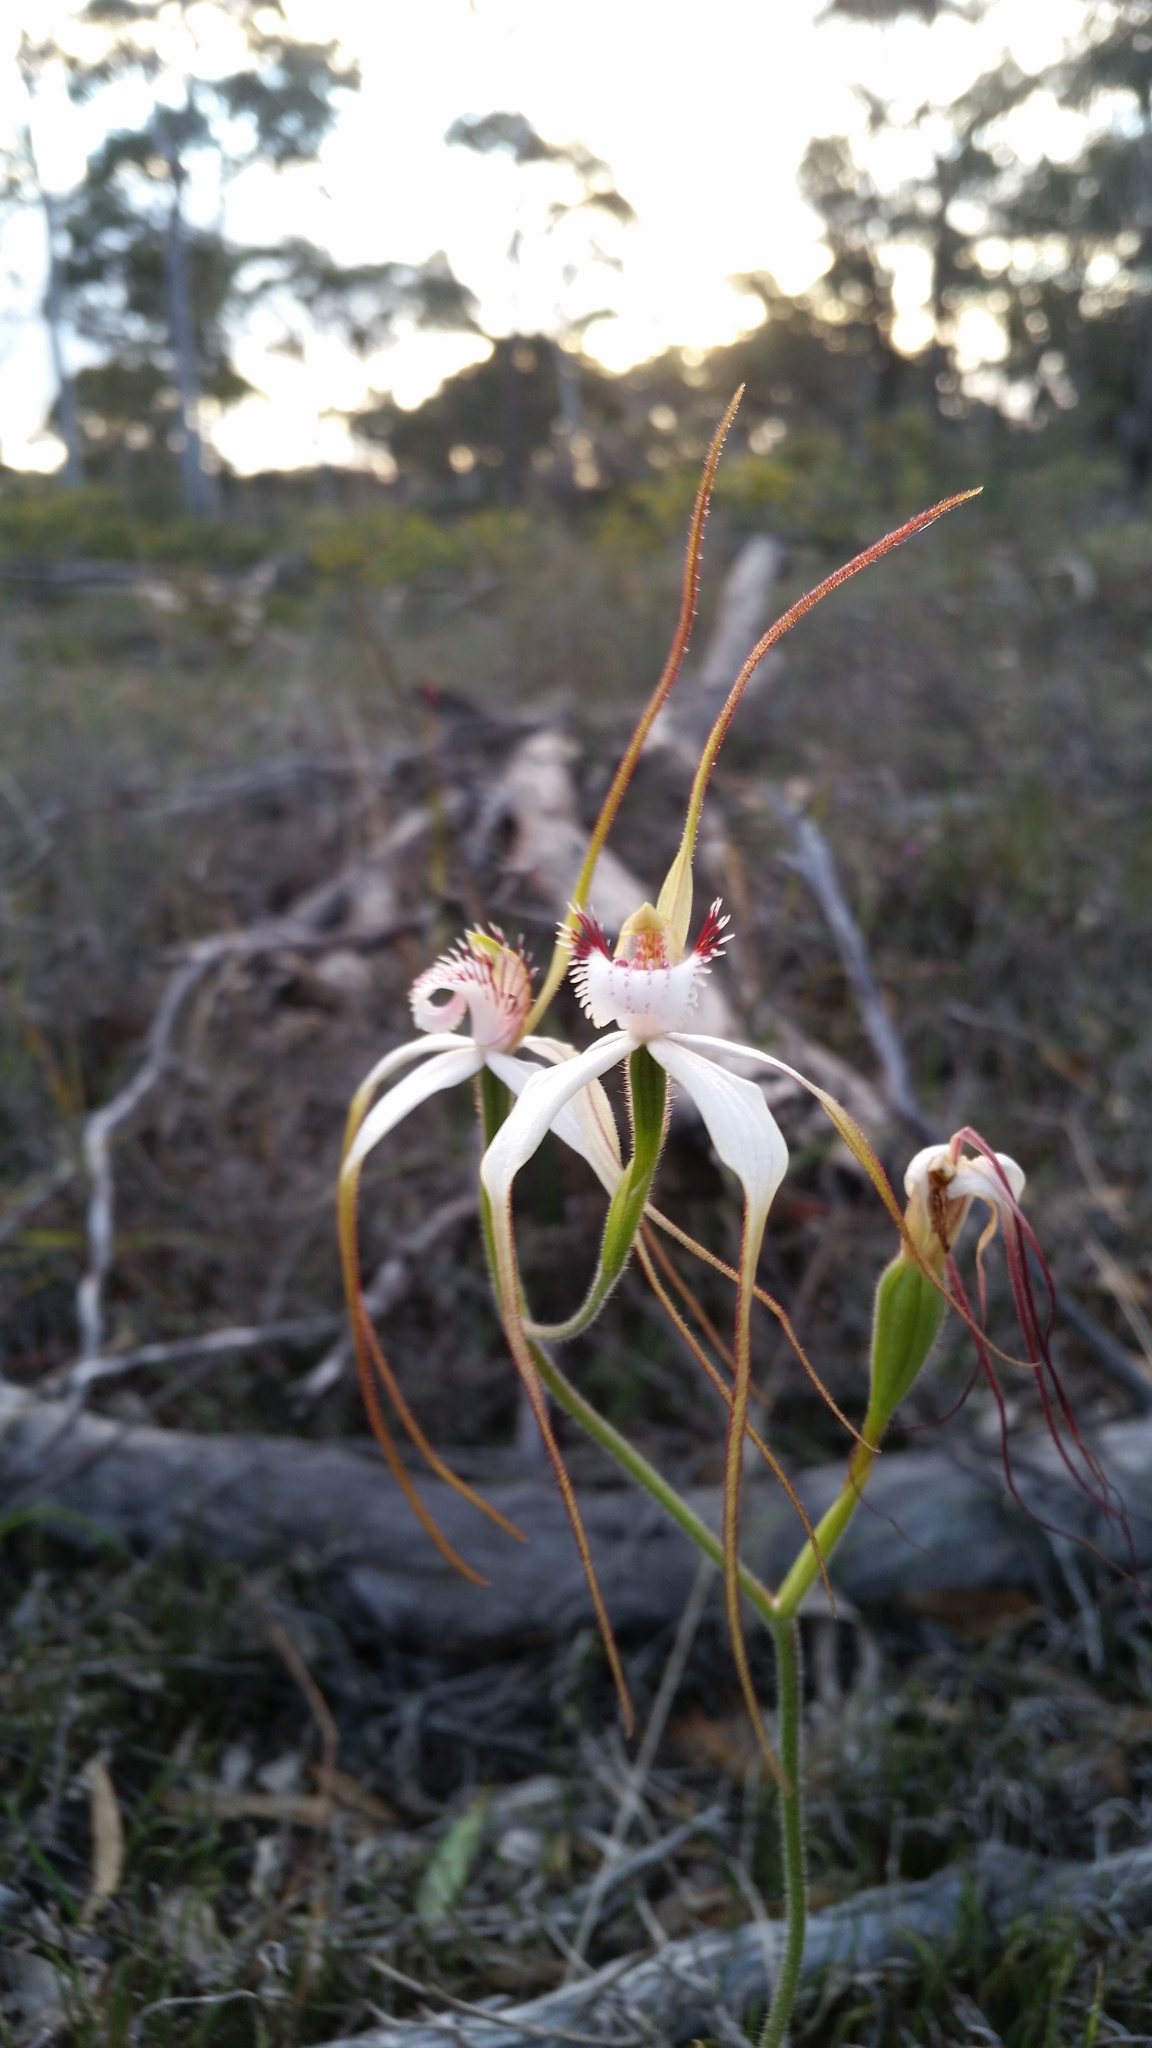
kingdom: Plantae
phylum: Tracheophyta
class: Liliopsida
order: Asparagales
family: Orchidaceae
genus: Caladenia
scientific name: Caladenia longicauda
